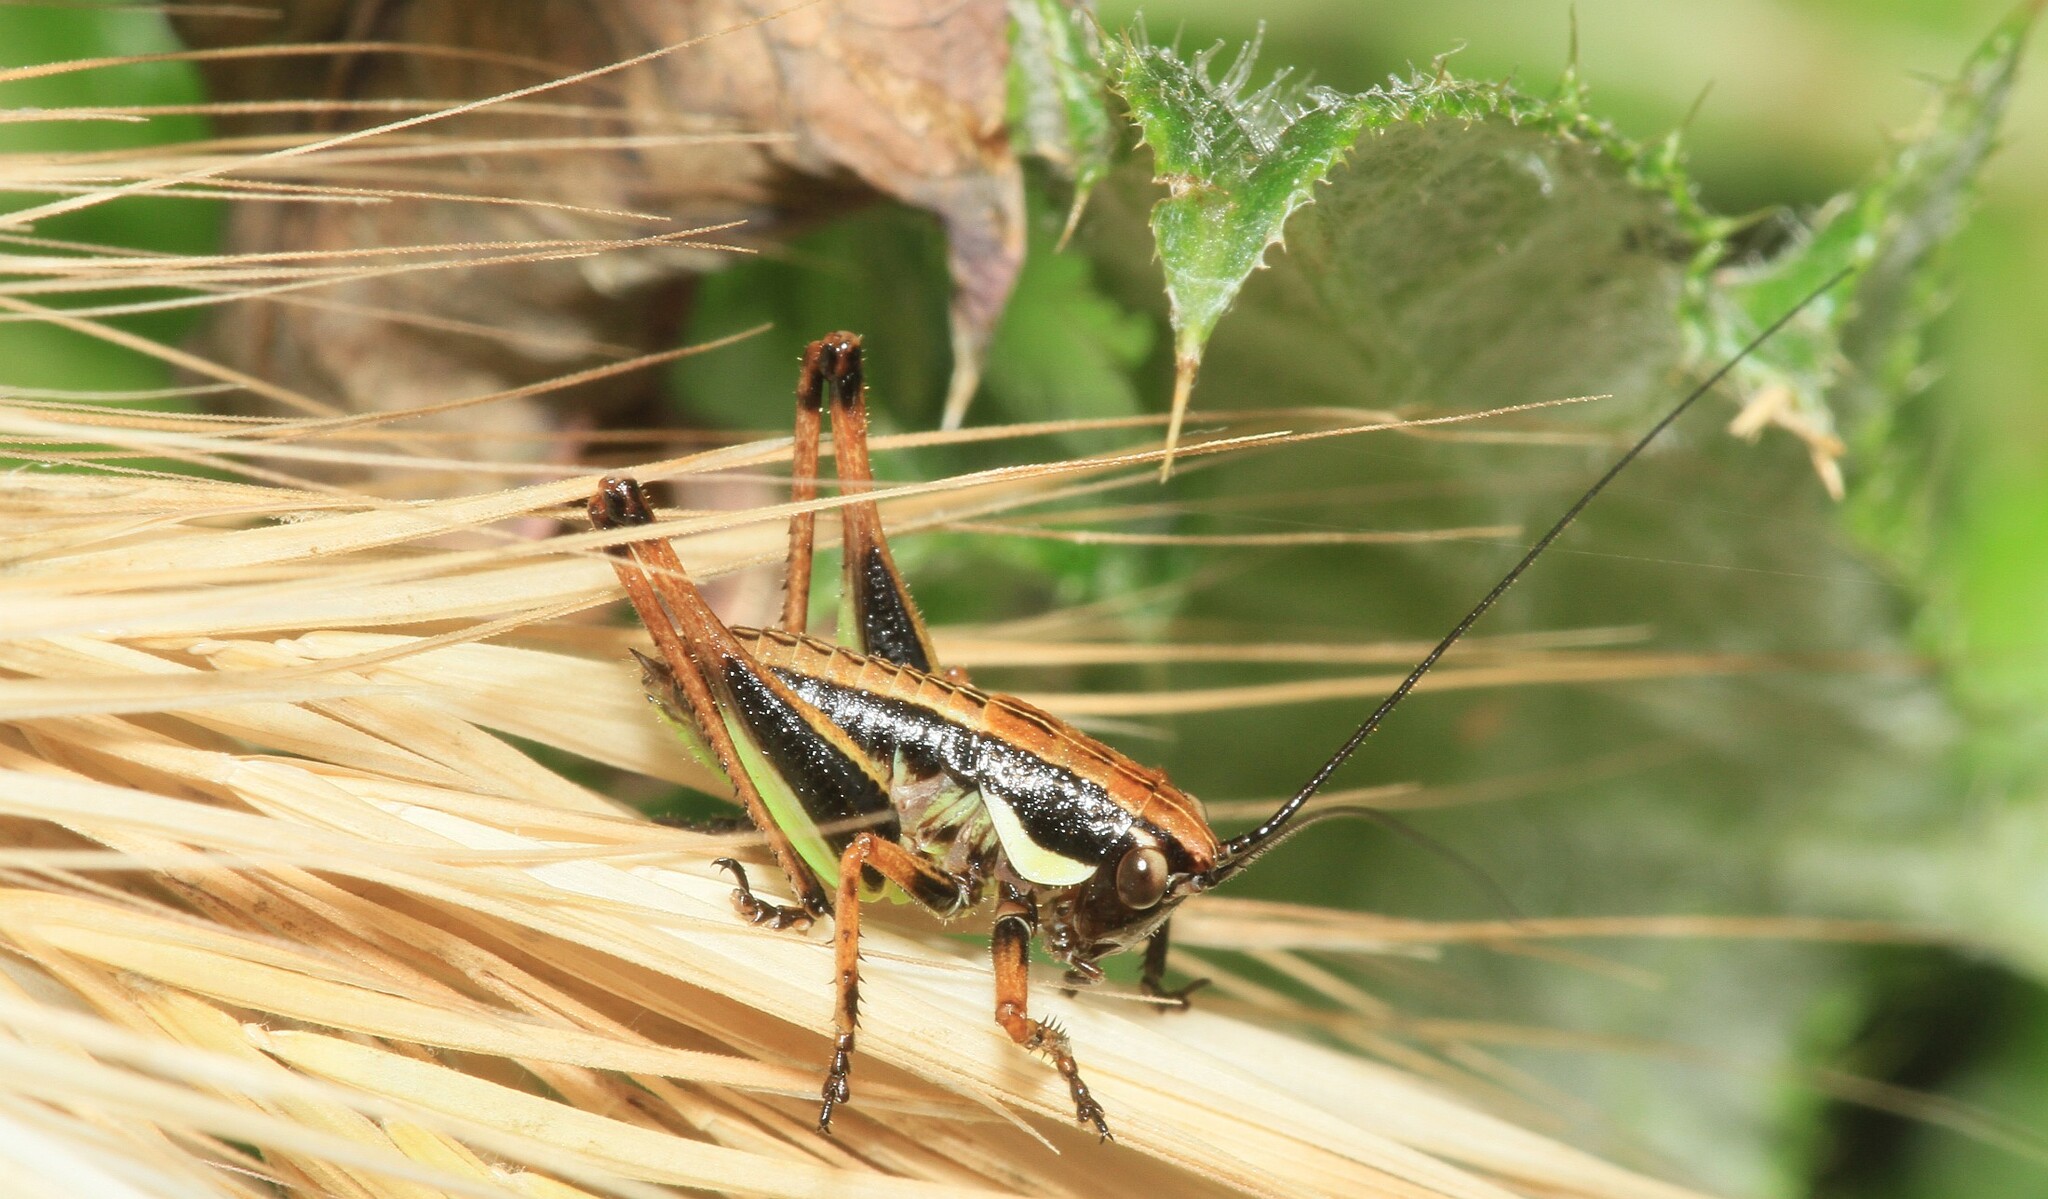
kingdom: Animalia
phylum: Arthropoda
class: Insecta
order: Orthoptera
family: Tettigoniidae
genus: Eupholidoptera
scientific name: Eupholidoptera garganica
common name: Gargano marbled bush-cricket
